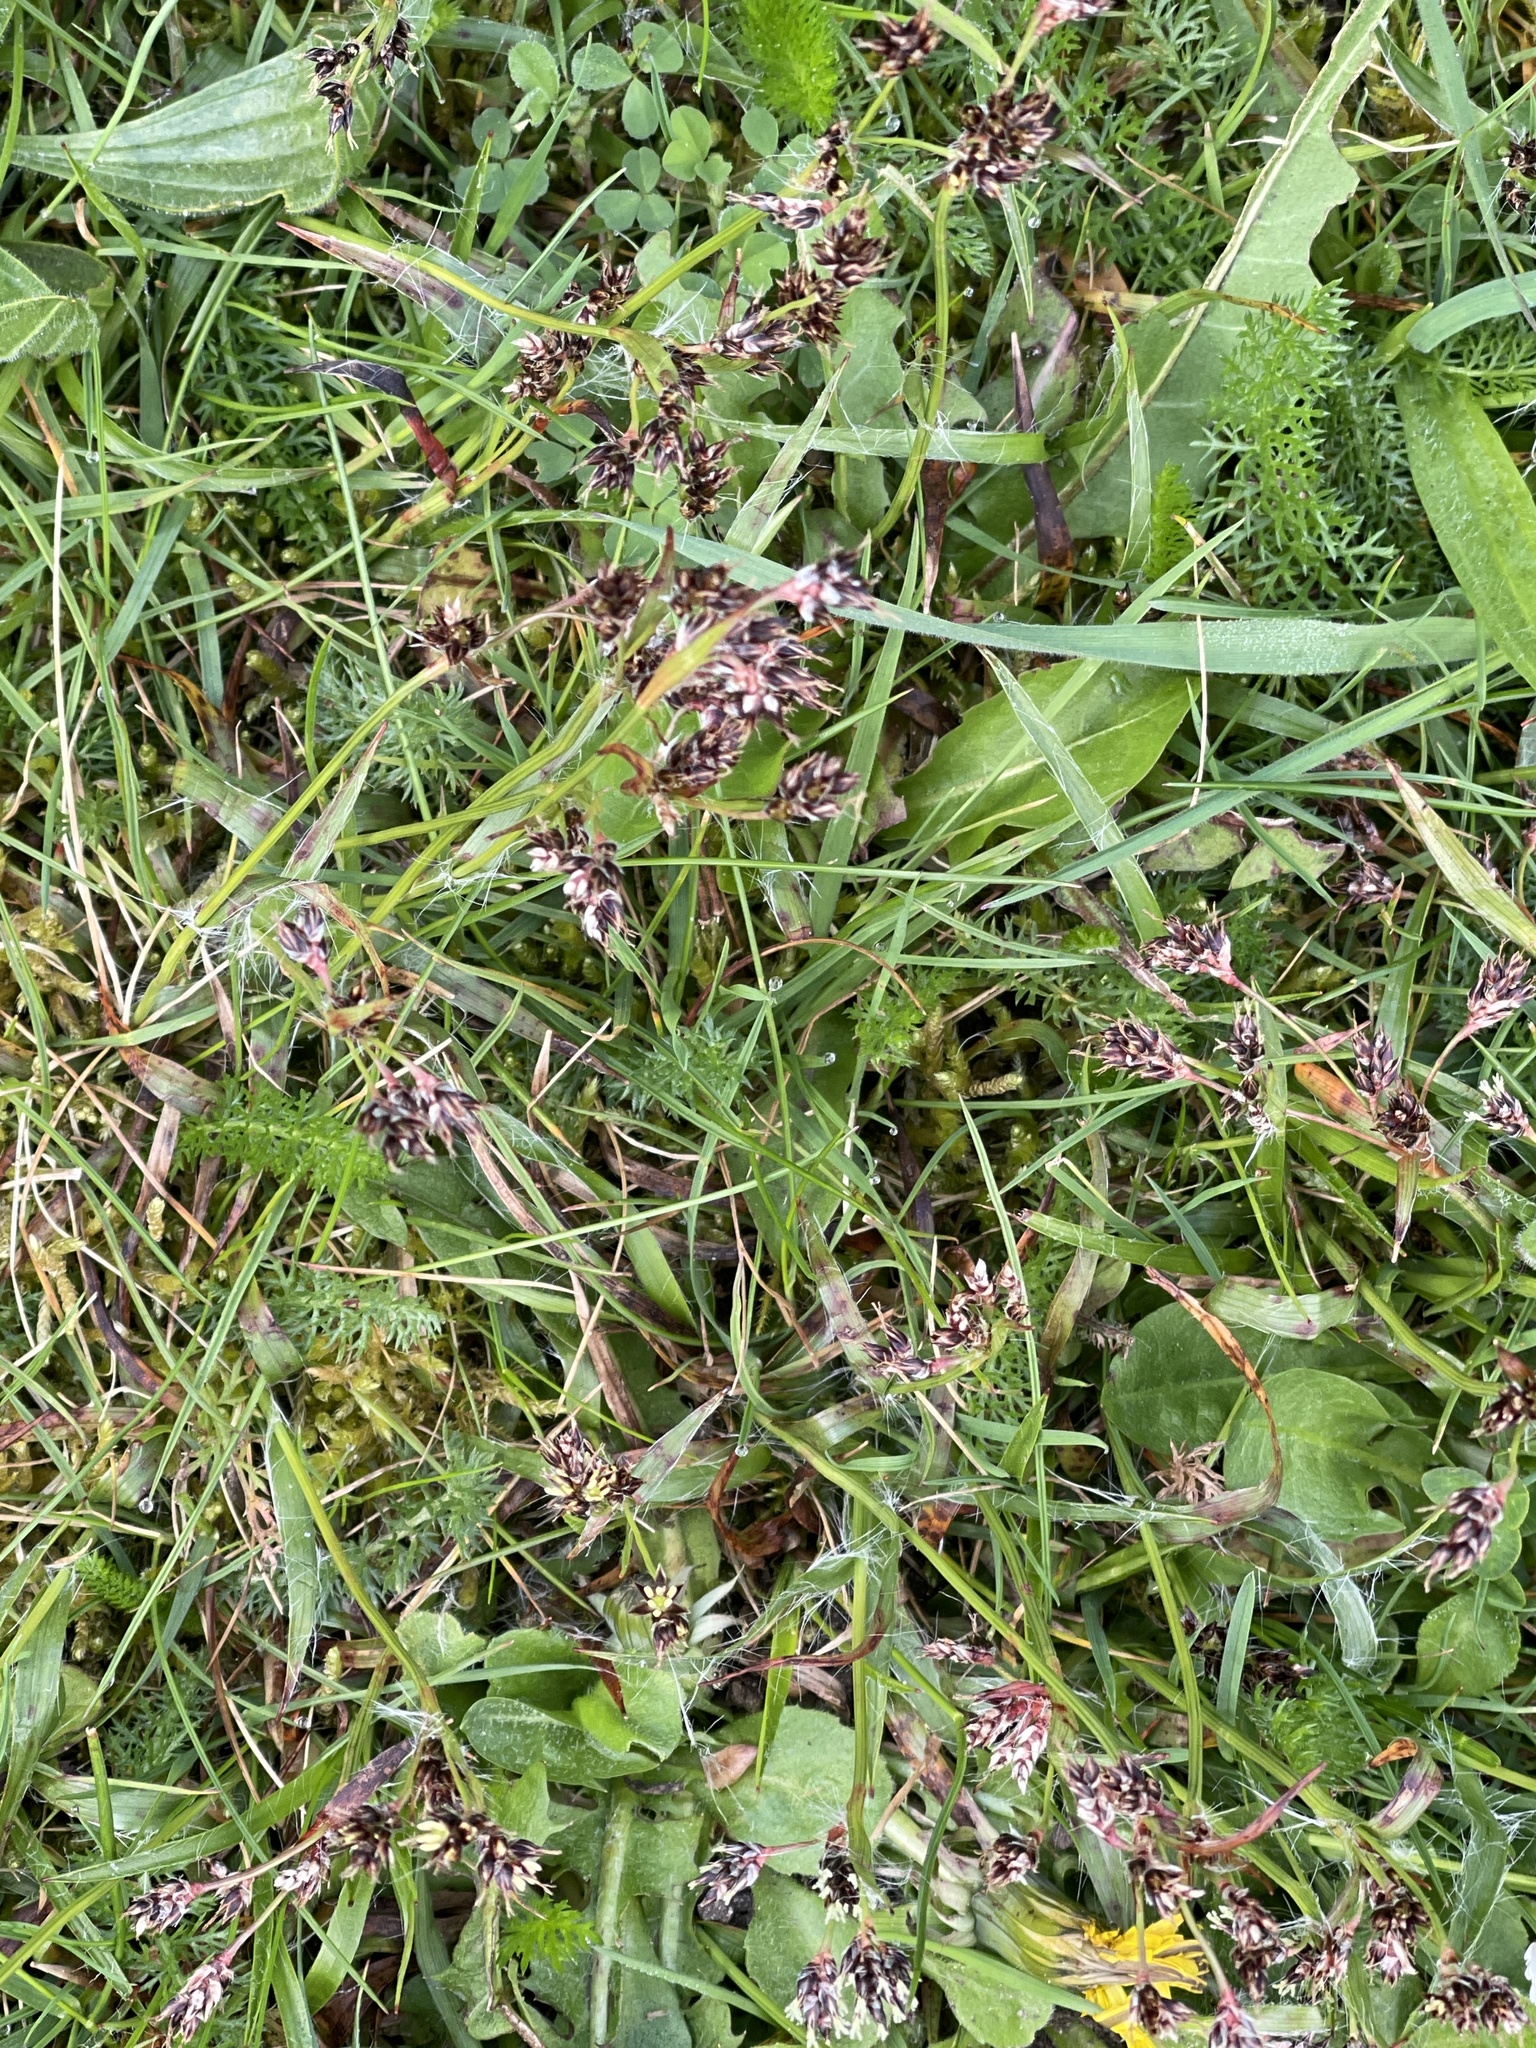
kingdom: Plantae
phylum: Tracheophyta
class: Liliopsida
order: Poales
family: Juncaceae
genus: Luzula
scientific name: Luzula campestris
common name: Field wood-rush
